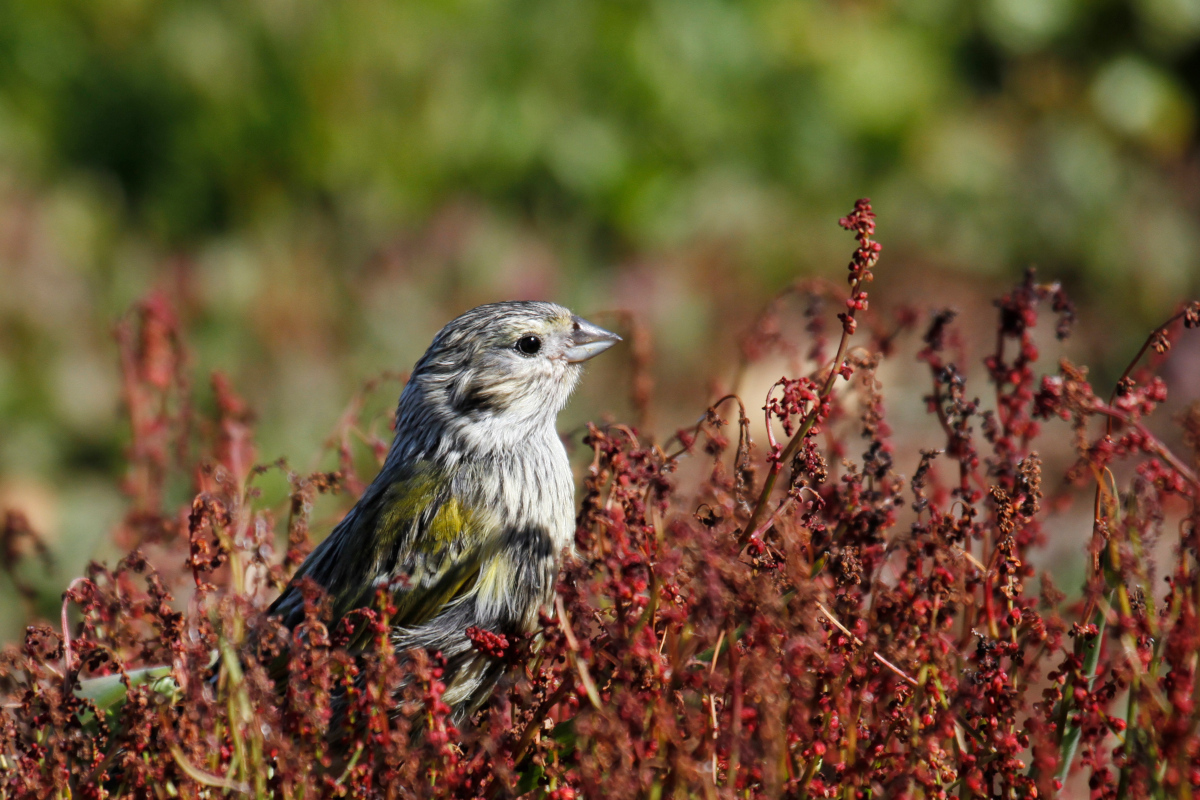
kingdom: Animalia
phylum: Chordata
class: Aves
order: Passeriformes
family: Thraupidae
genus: Melanodera
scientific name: Melanodera melanodera
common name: White-bridled finch
